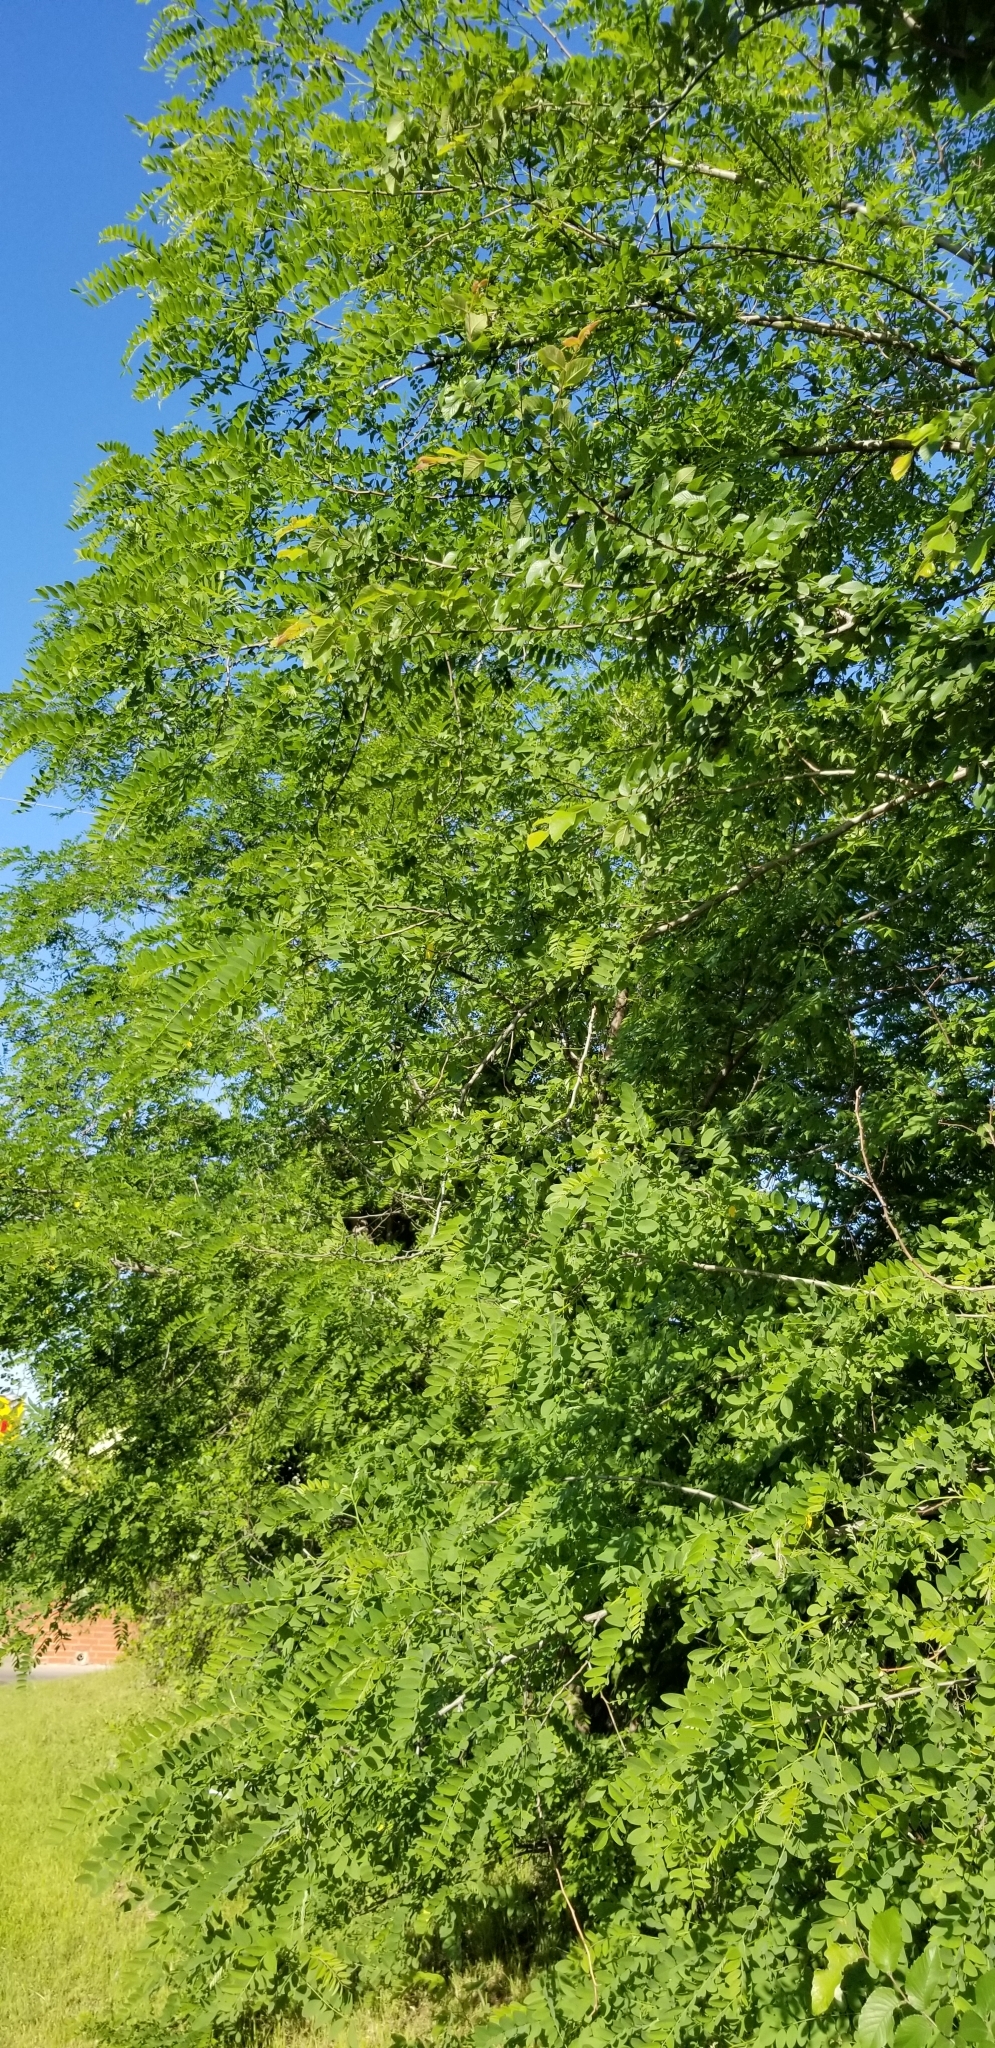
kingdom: Plantae
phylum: Tracheophyta
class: Magnoliopsida
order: Fabales
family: Fabaceae
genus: Robinia
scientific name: Robinia pseudoacacia
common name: Black locust
